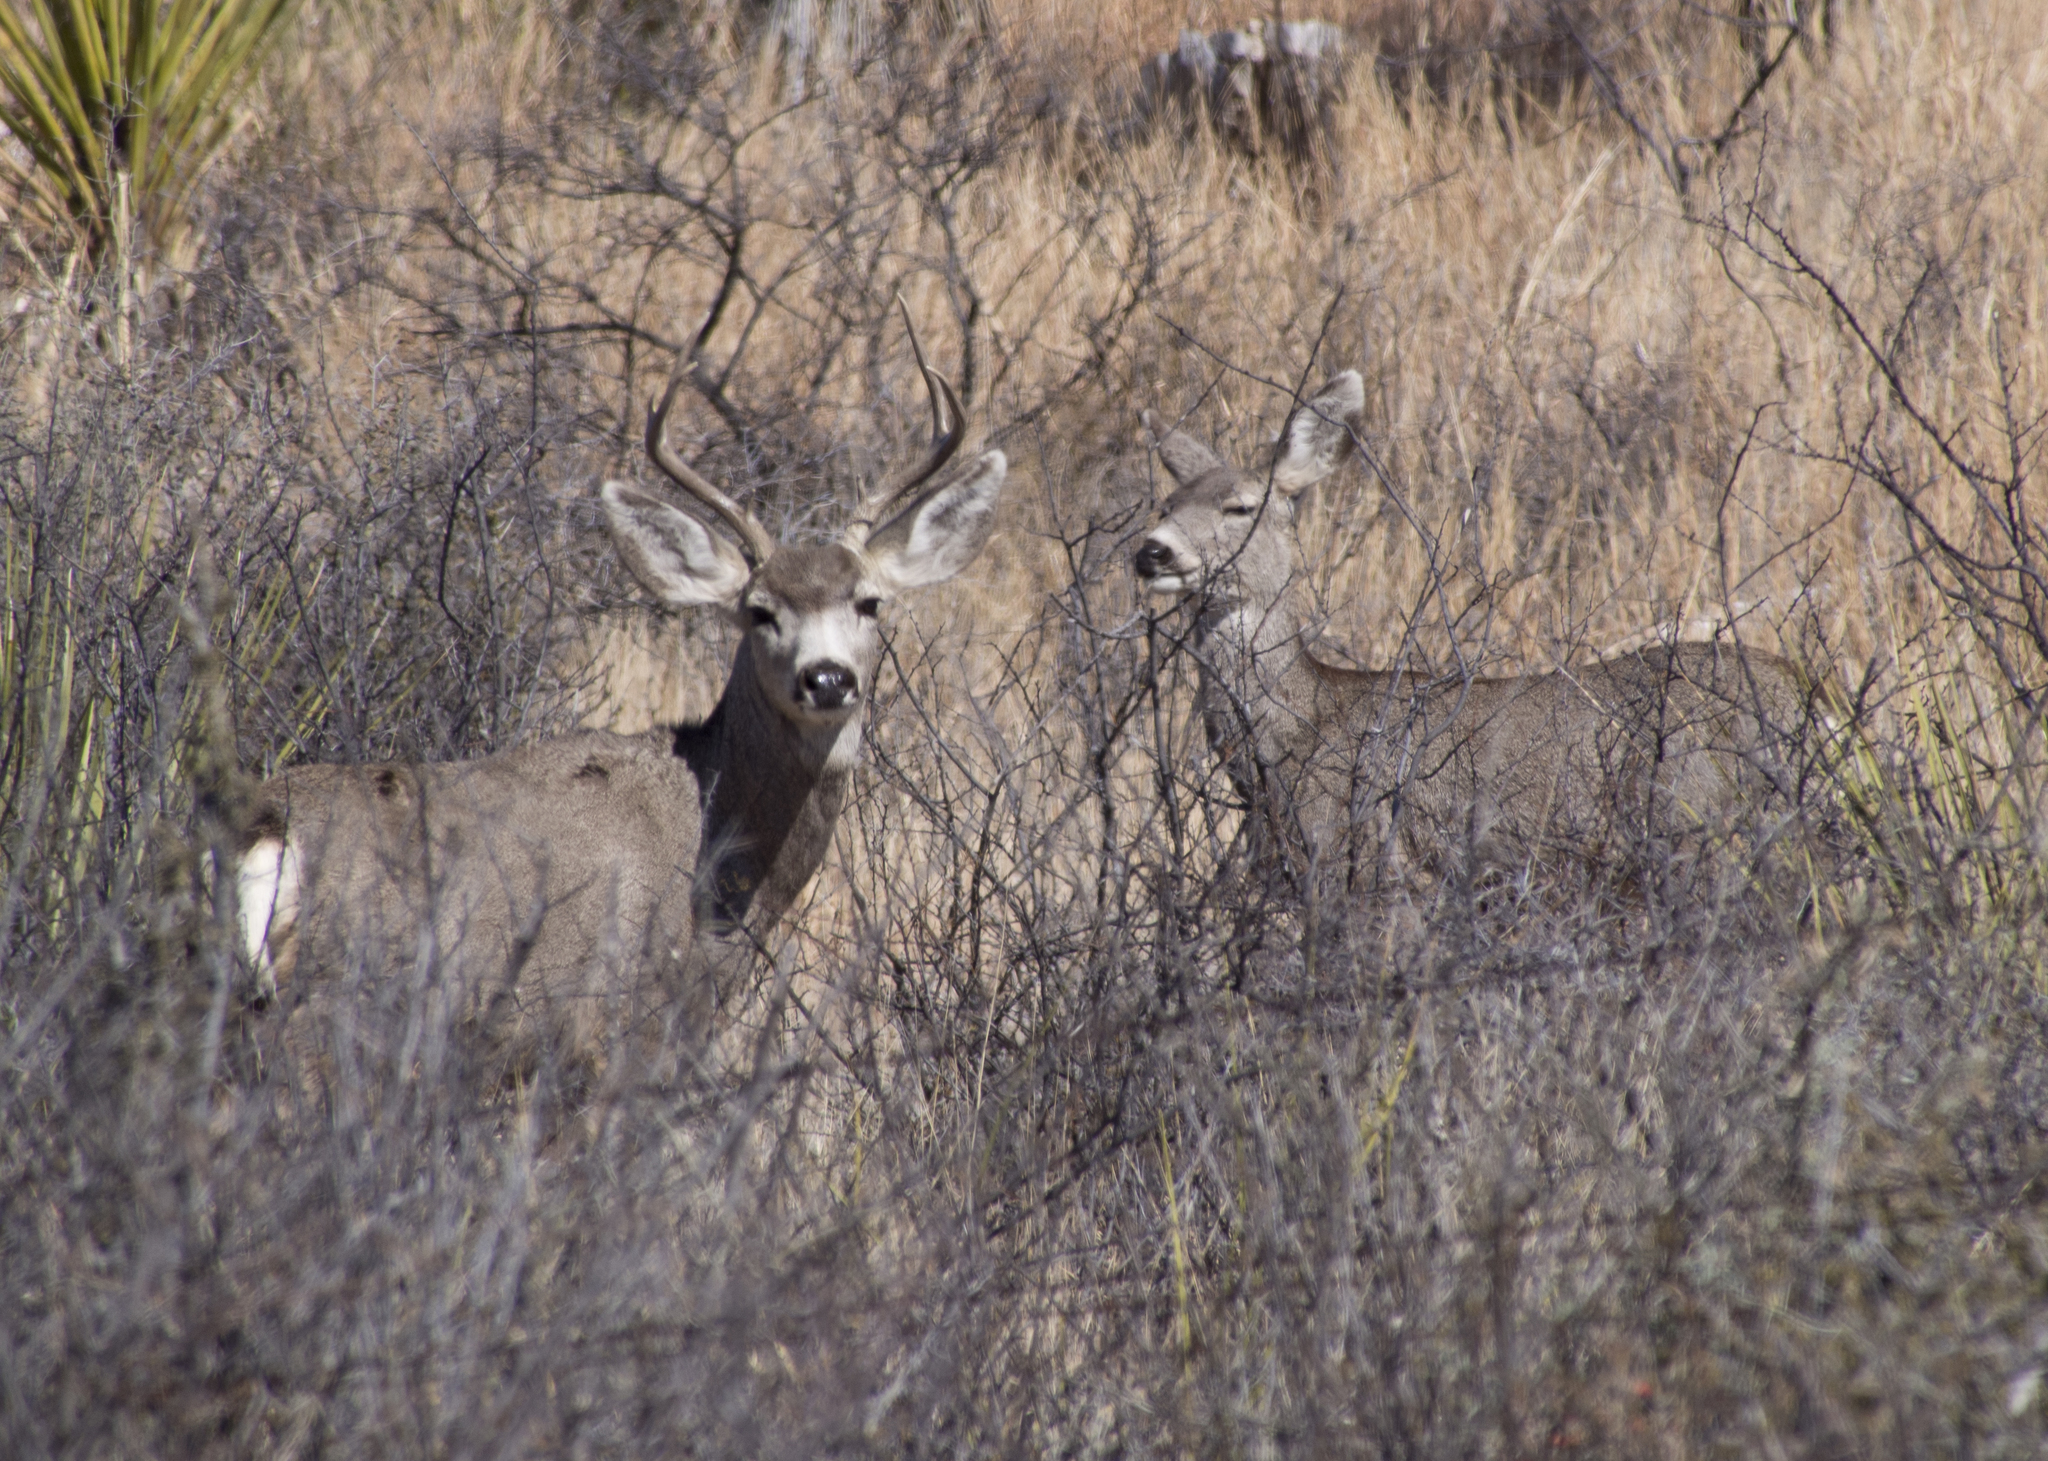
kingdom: Animalia
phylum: Chordata
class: Mammalia
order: Artiodactyla
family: Cervidae
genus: Odocoileus
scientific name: Odocoileus hemionus
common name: Mule deer
